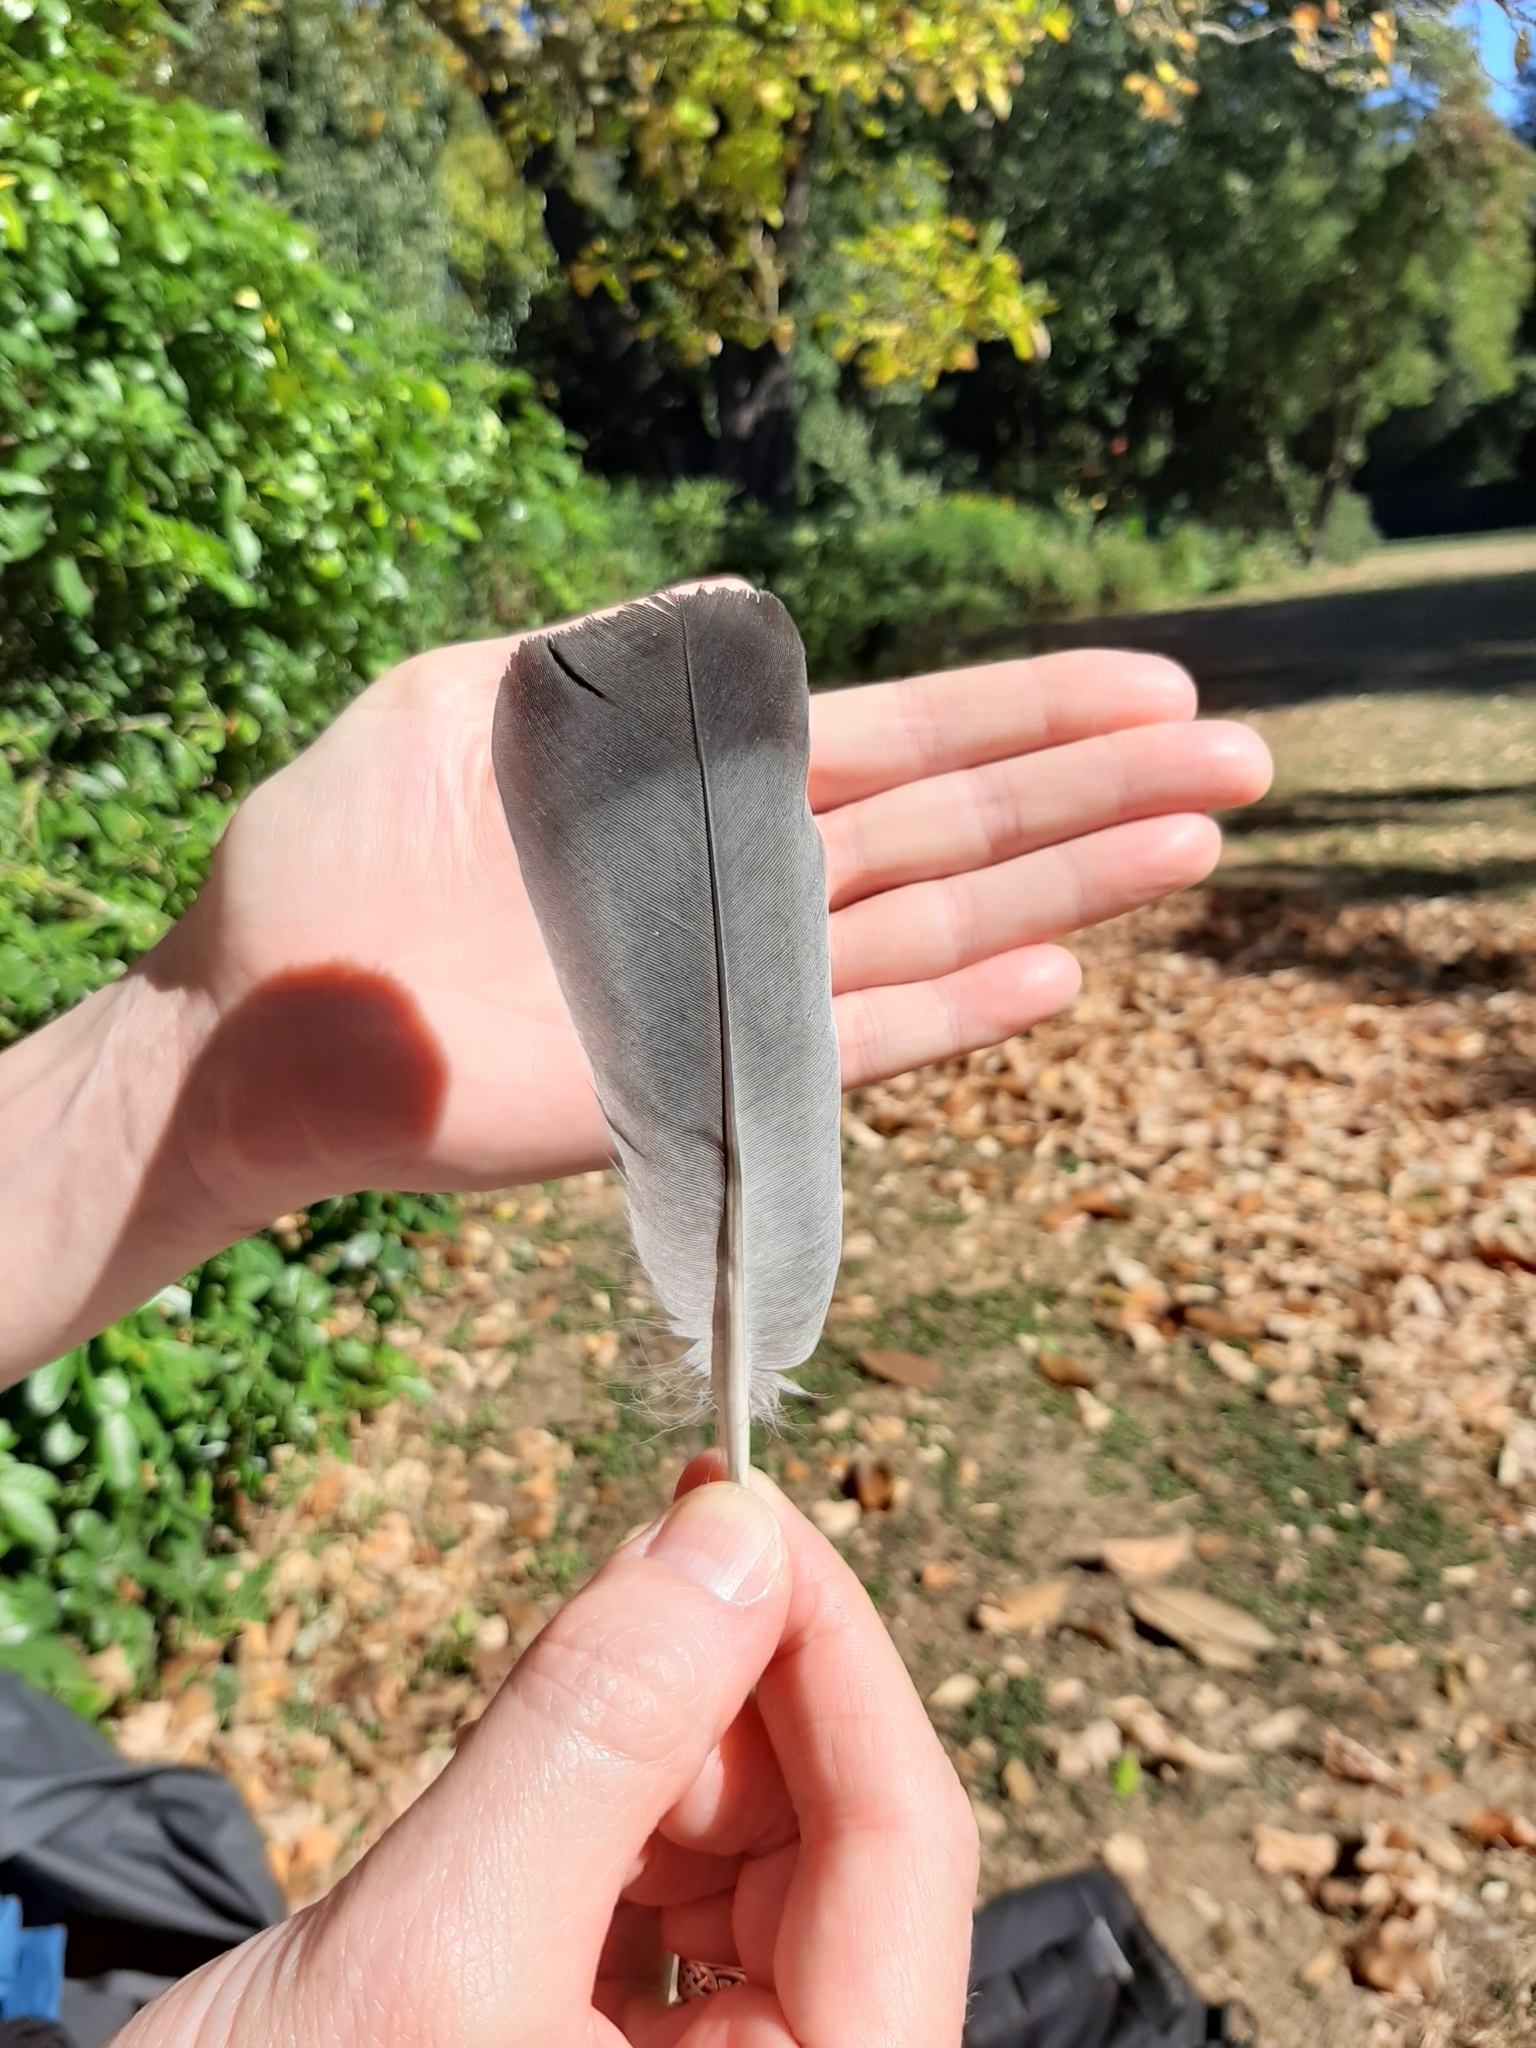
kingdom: Animalia
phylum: Chordata
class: Aves
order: Columbiformes
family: Columbidae
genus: Columba
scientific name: Columba livia
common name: Rock pigeon
